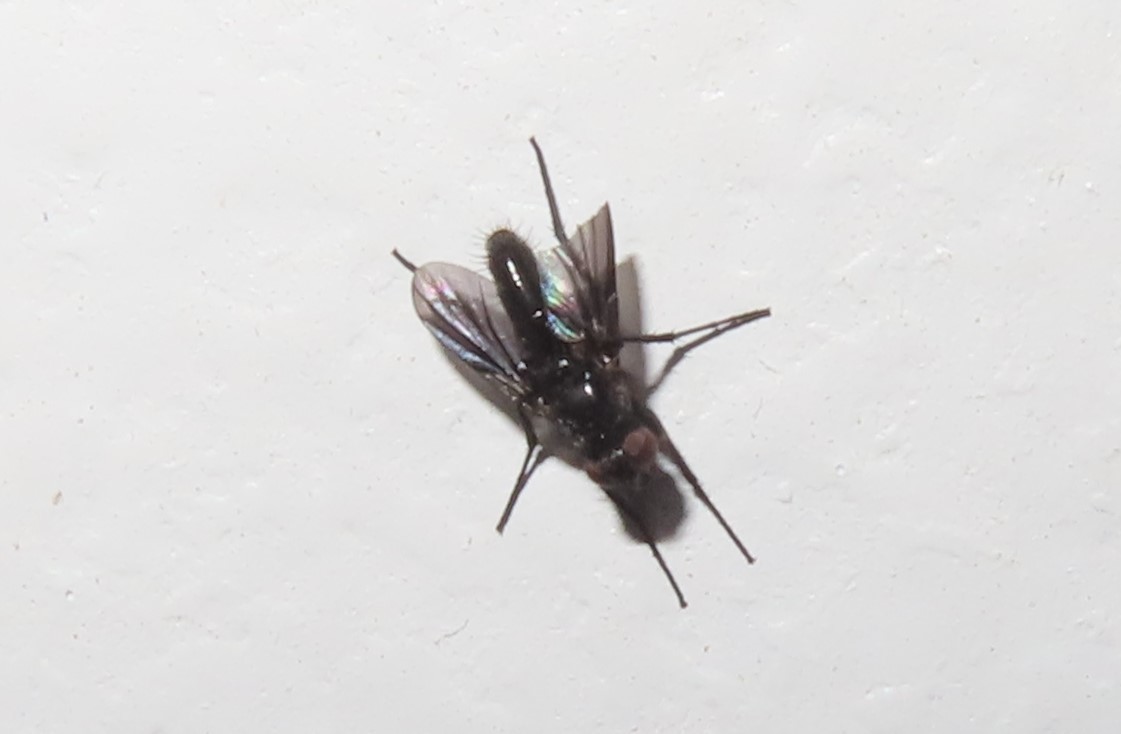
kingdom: Animalia
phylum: Arthropoda
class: Insecta
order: Diptera
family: Calliphoridae
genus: Melanophora
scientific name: Melanophora roralis
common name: Smoky-winged woodlouse-fly
